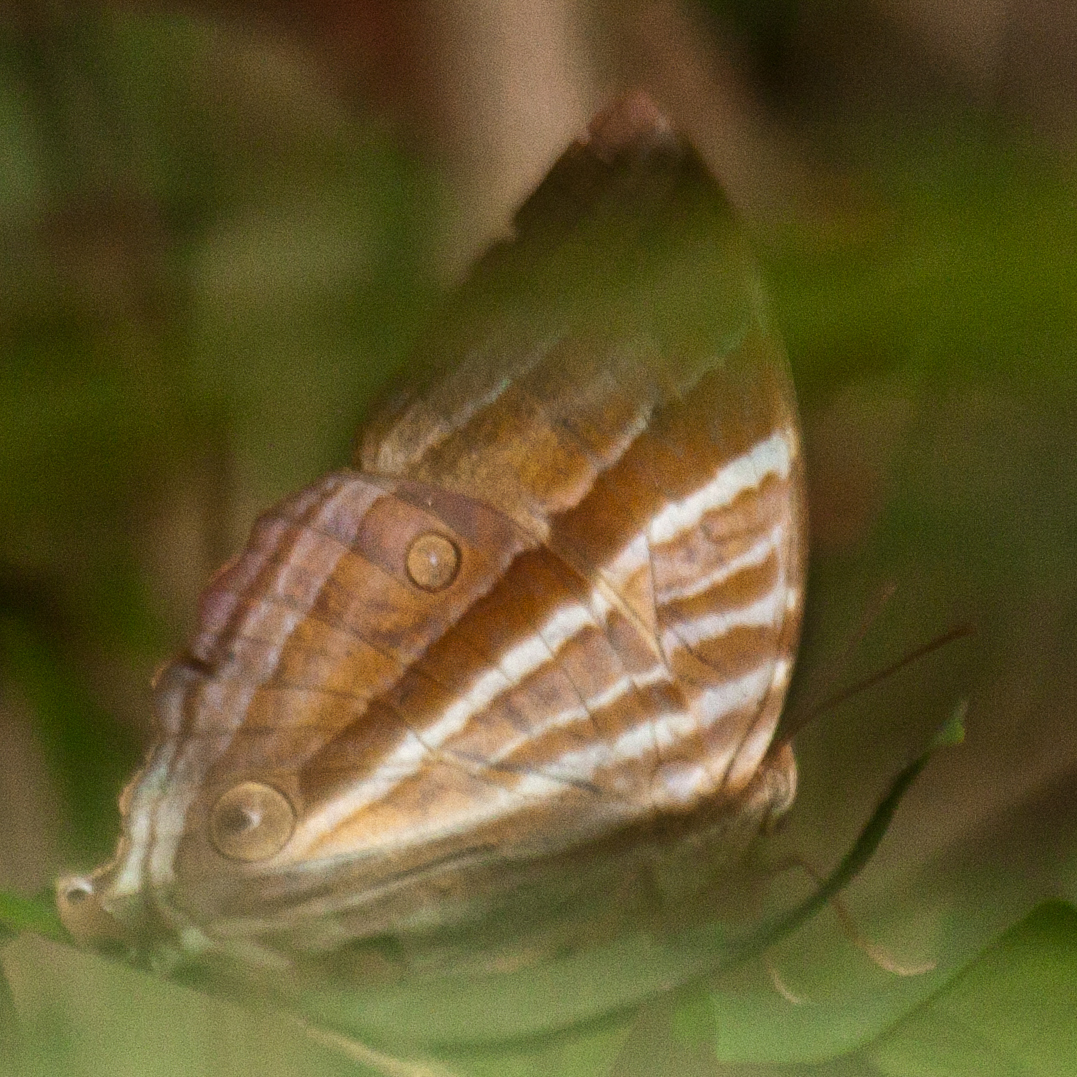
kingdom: Animalia
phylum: Arthropoda
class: Insecta
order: Lepidoptera
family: Nymphalidae
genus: Amathusia
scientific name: Amathusia phidippus
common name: Palm king
